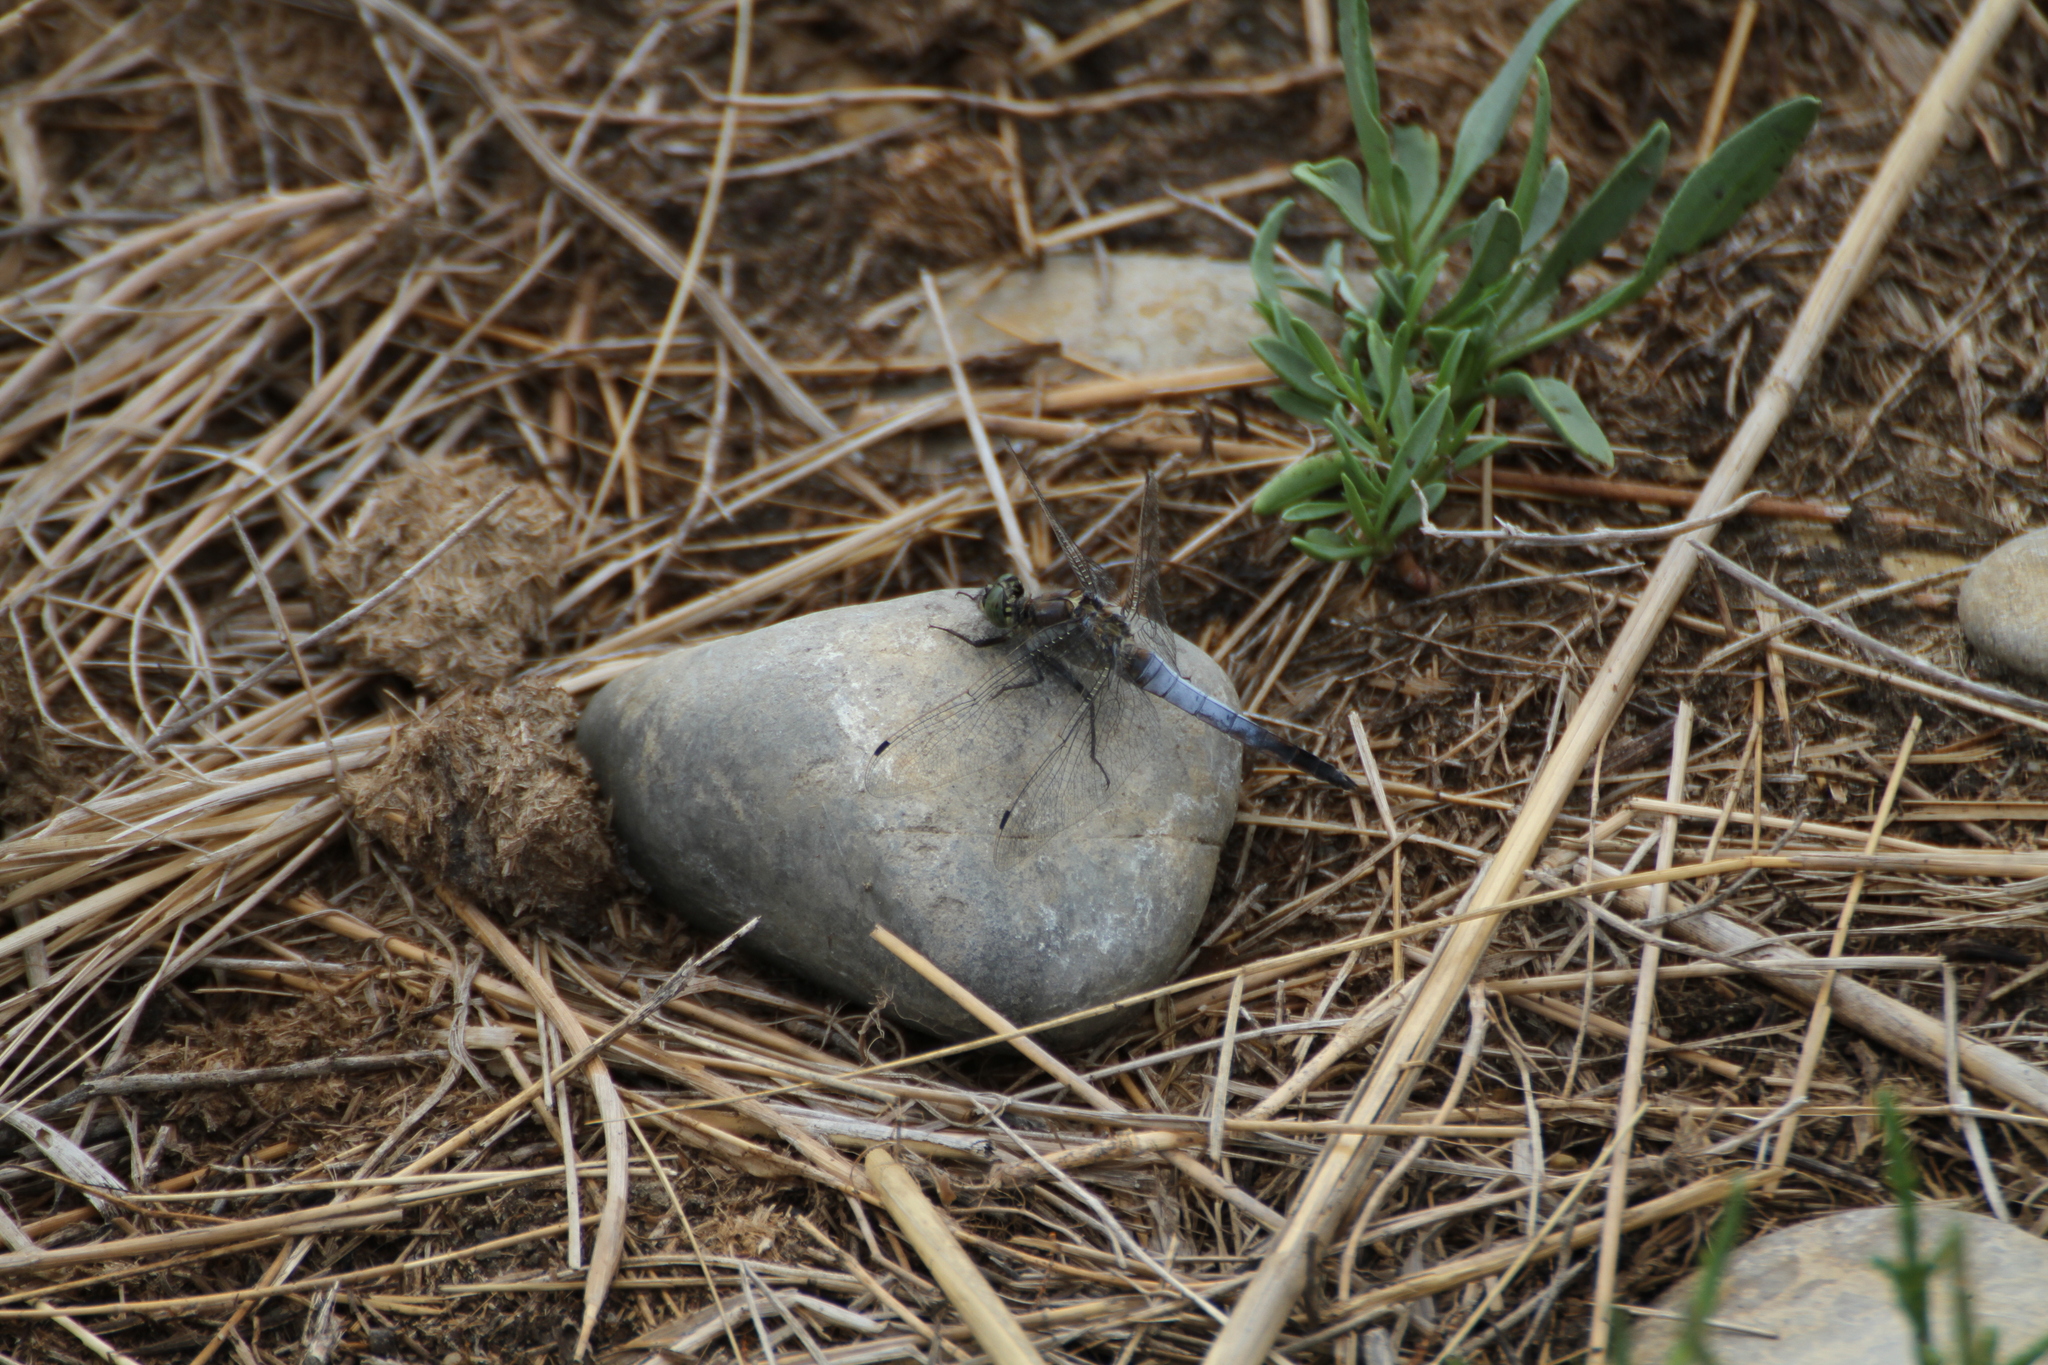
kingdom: Animalia
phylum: Arthropoda
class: Insecta
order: Odonata
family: Libellulidae
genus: Orthetrum
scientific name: Orthetrum cancellatum
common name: Black-tailed skimmer
